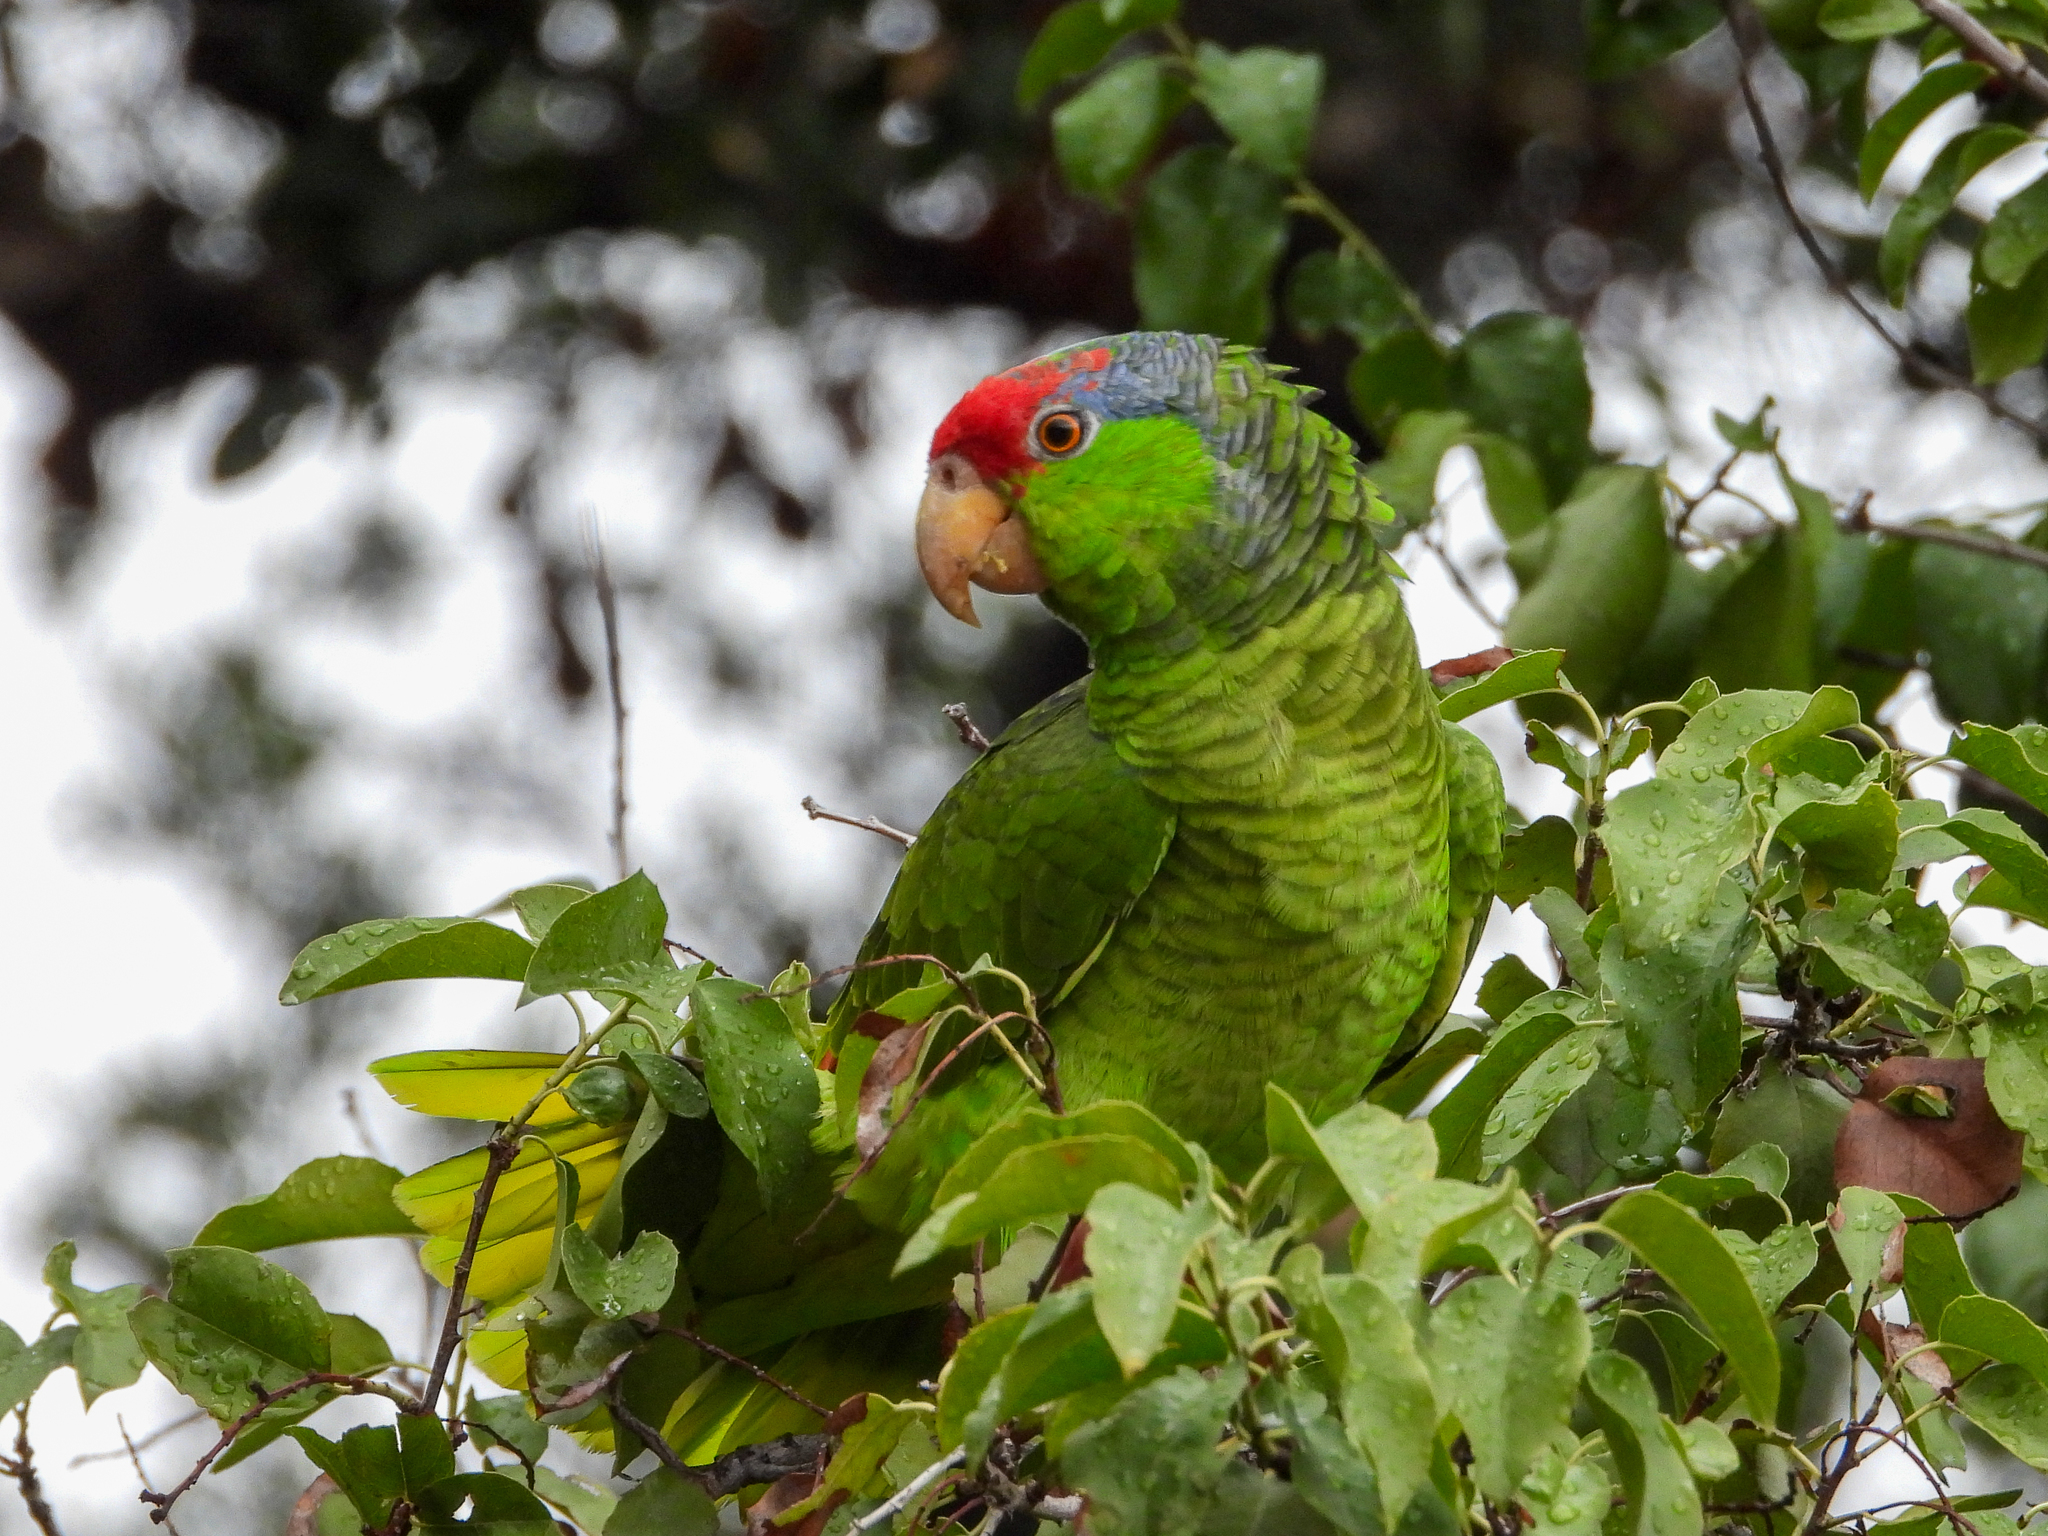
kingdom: Animalia
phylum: Chordata
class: Aves
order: Psittaciformes
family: Psittacidae
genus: Amazona
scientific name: Amazona viridigenalis
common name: Red-crowned amazon
